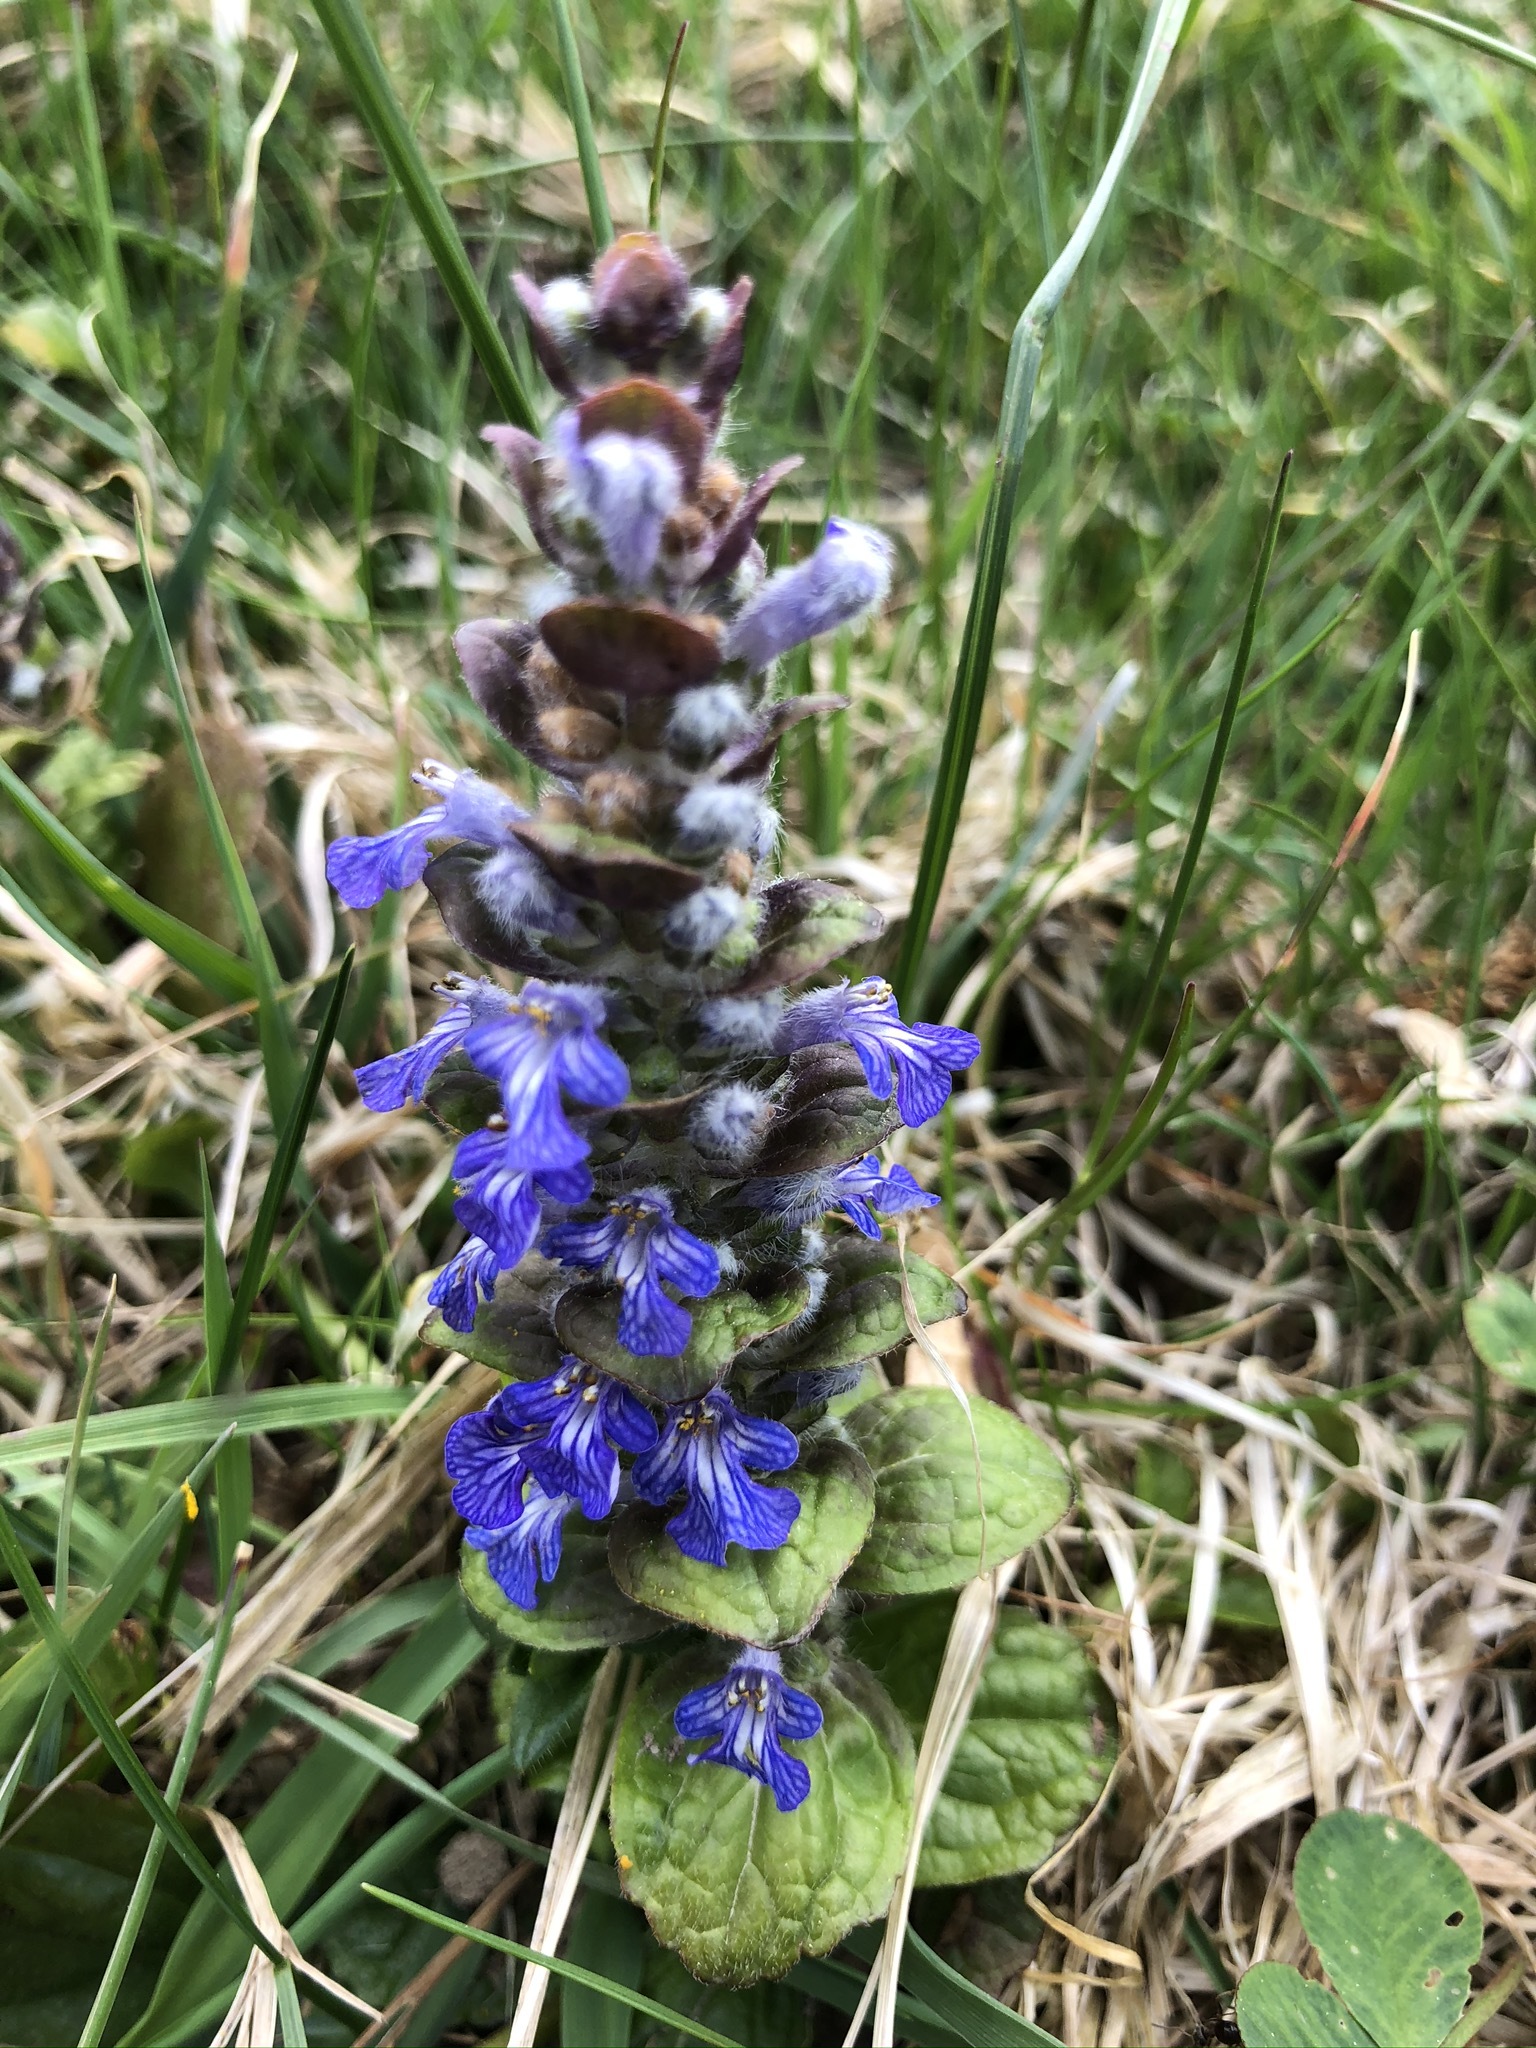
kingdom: Plantae
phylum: Tracheophyta
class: Magnoliopsida
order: Lamiales
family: Lamiaceae
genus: Ajuga
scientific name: Ajuga reptans
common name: Bugle
